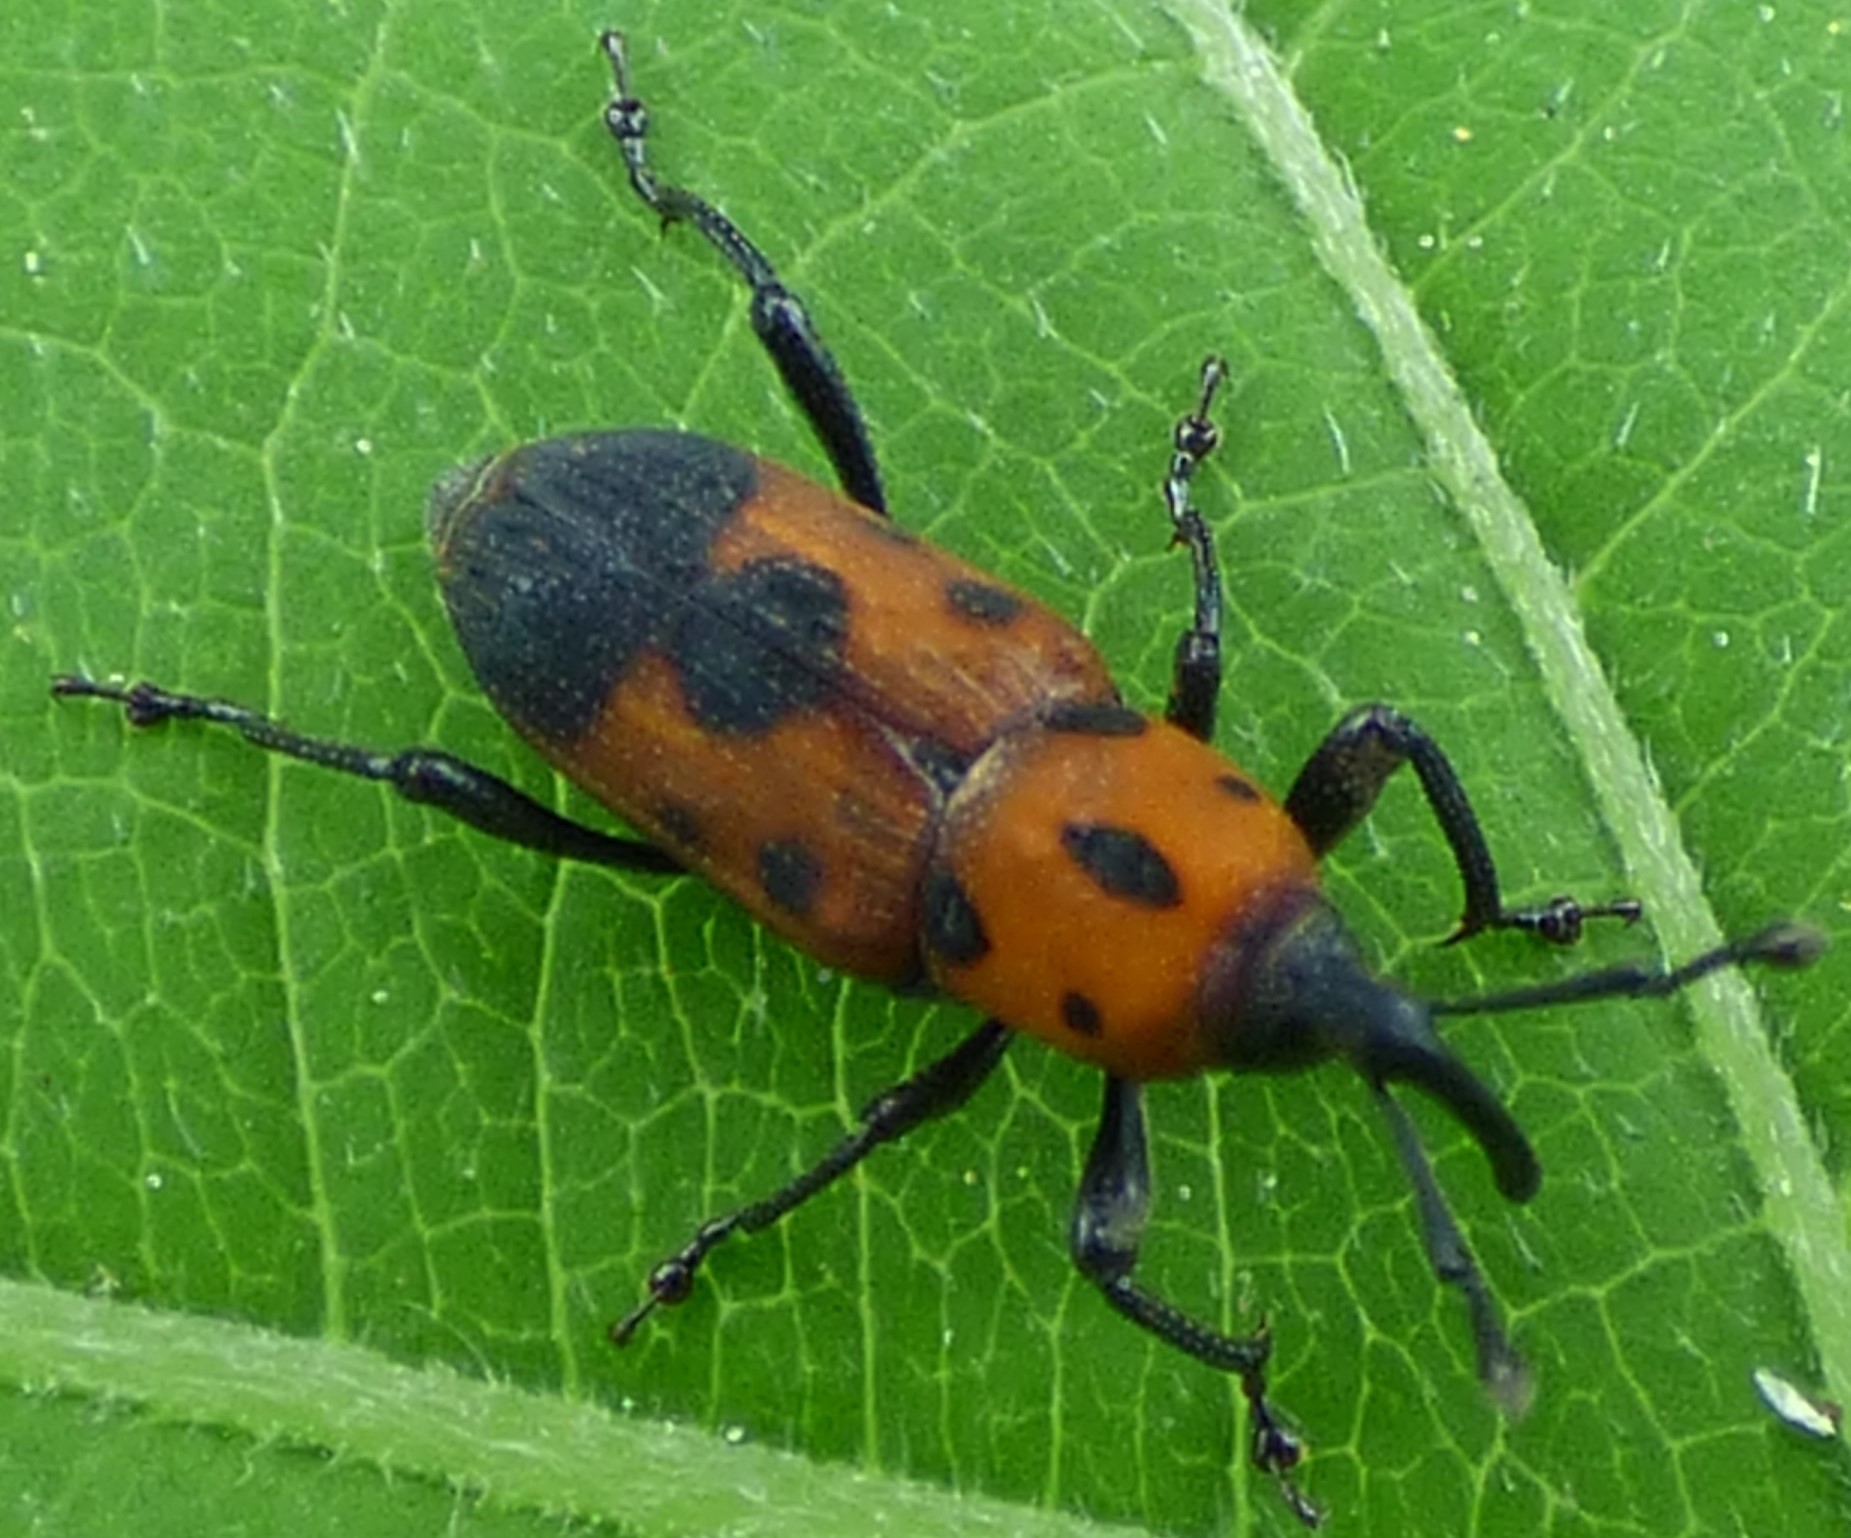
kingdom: Animalia
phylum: Arthropoda
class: Insecta
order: Coleoptera
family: Dryophthoridae
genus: Rhodobaenus
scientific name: Rhodobaenus quinquepunctatus
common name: Cocklebur weevil
